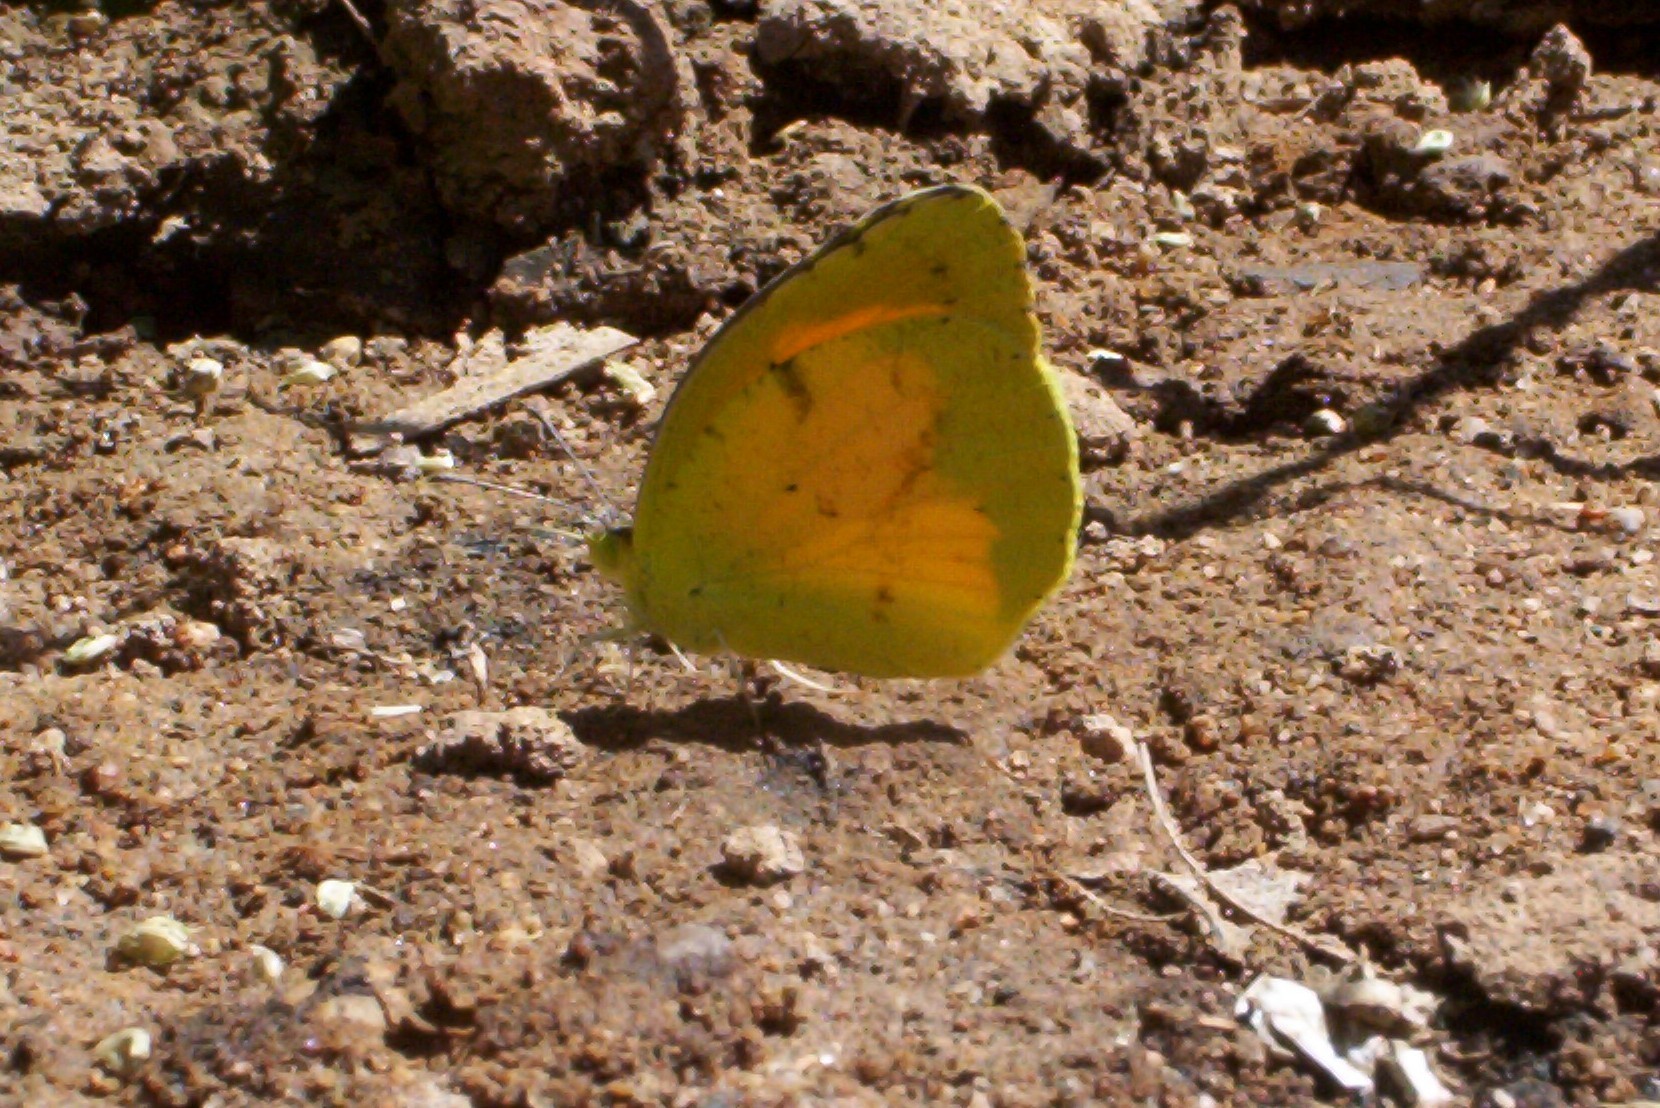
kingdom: Animalia
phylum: Arthropoda
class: Insecta
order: Lepidoptera
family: Pieridae
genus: Abaeis
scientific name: Abaeis nicippe
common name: Sleepy orange
